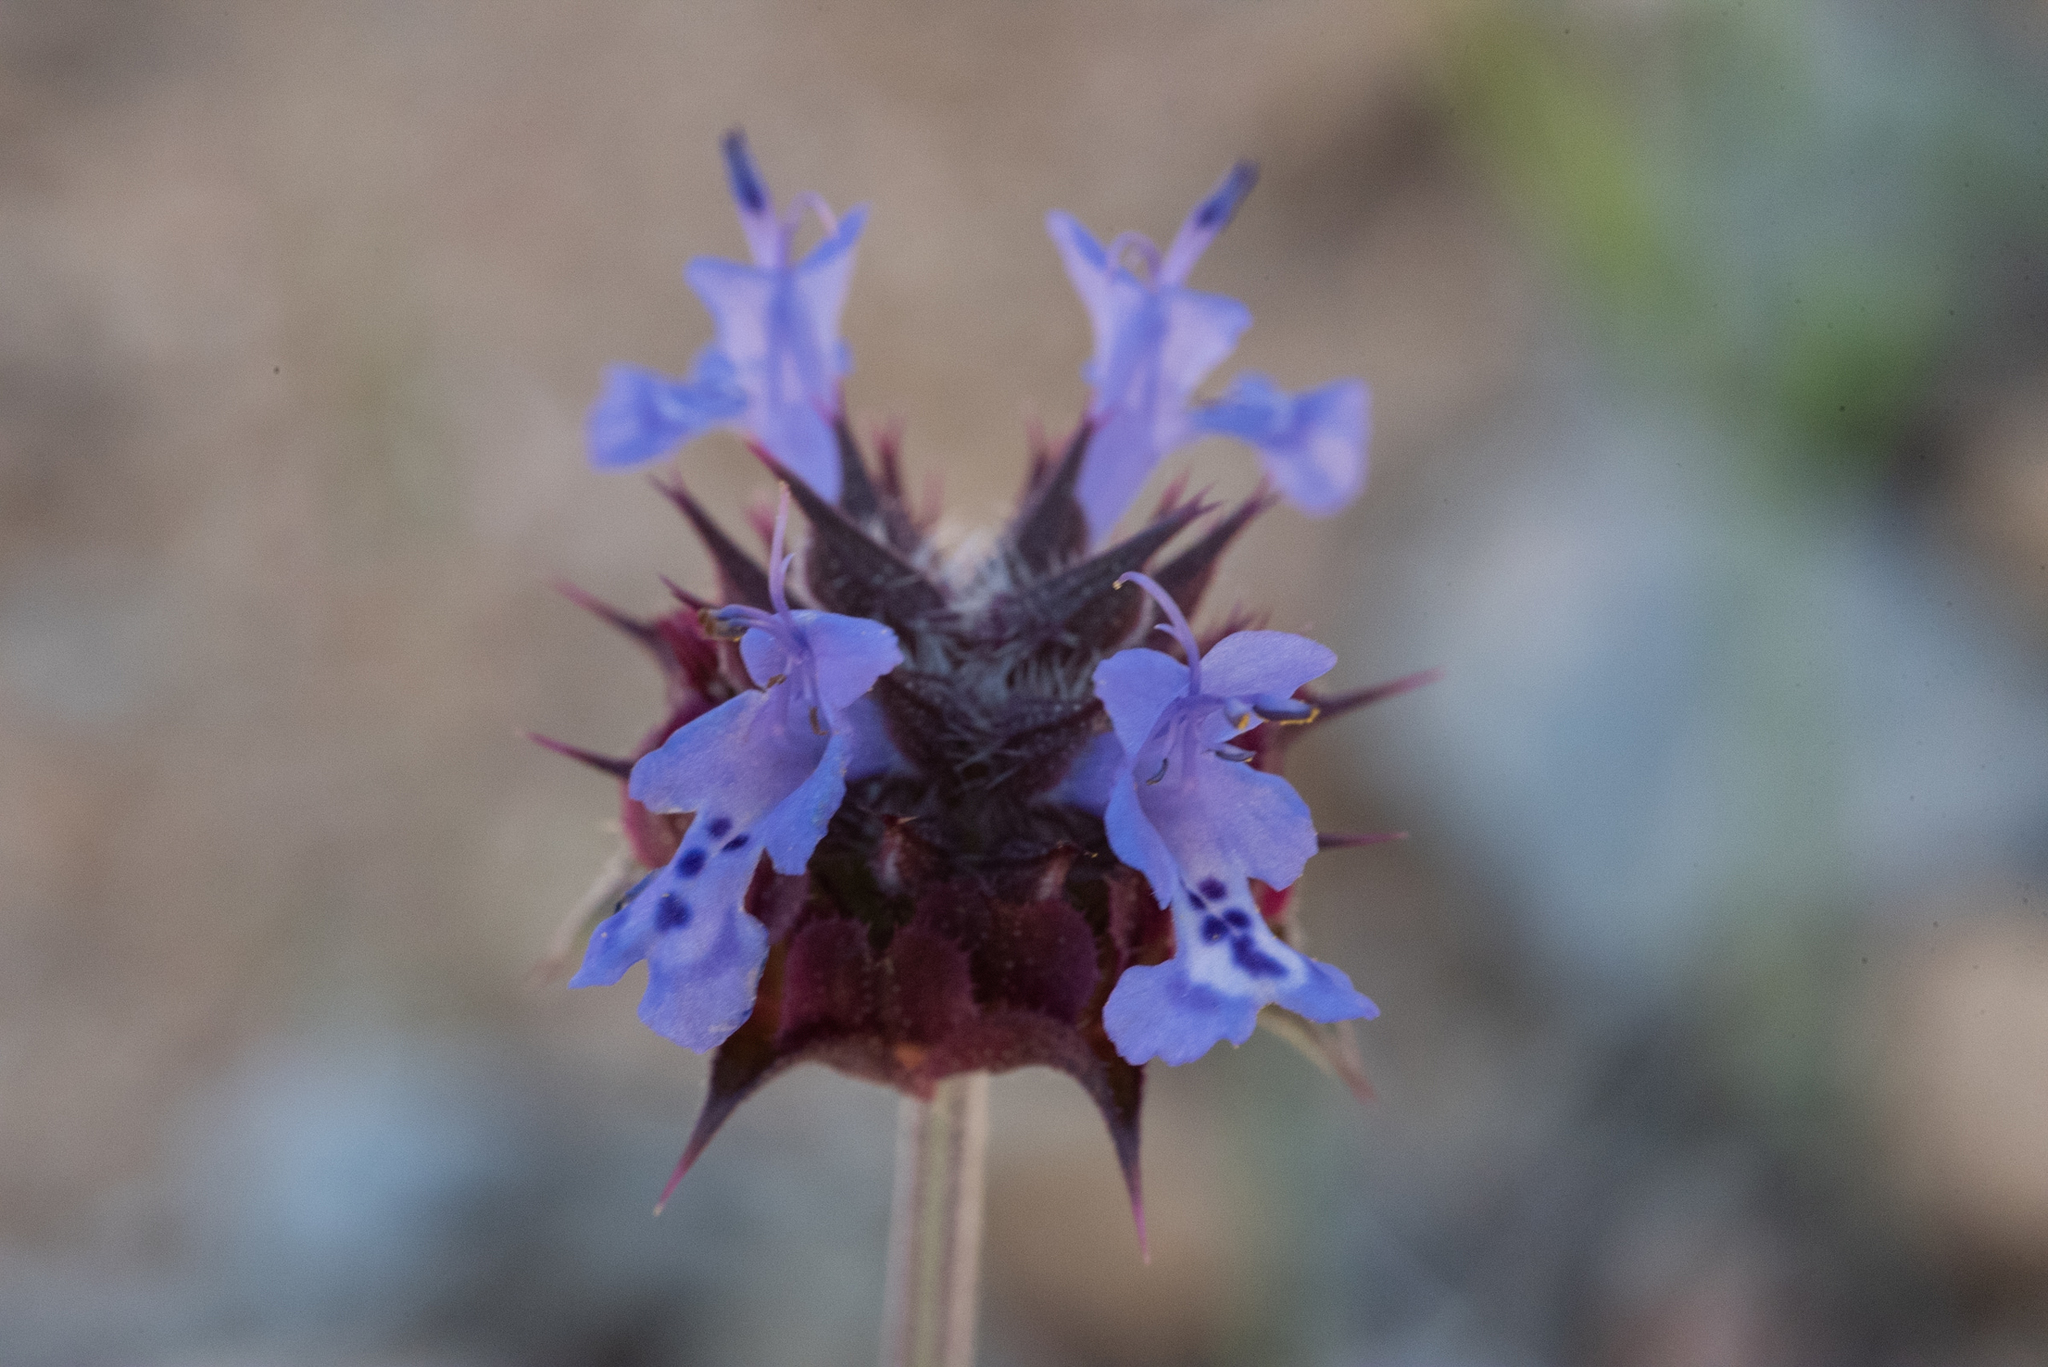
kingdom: Plantae
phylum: Tracheophyta
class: Magnoliopsida
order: Lamiales
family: Lamiaceae
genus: Salvia
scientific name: Salvia columbariae
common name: Chia
